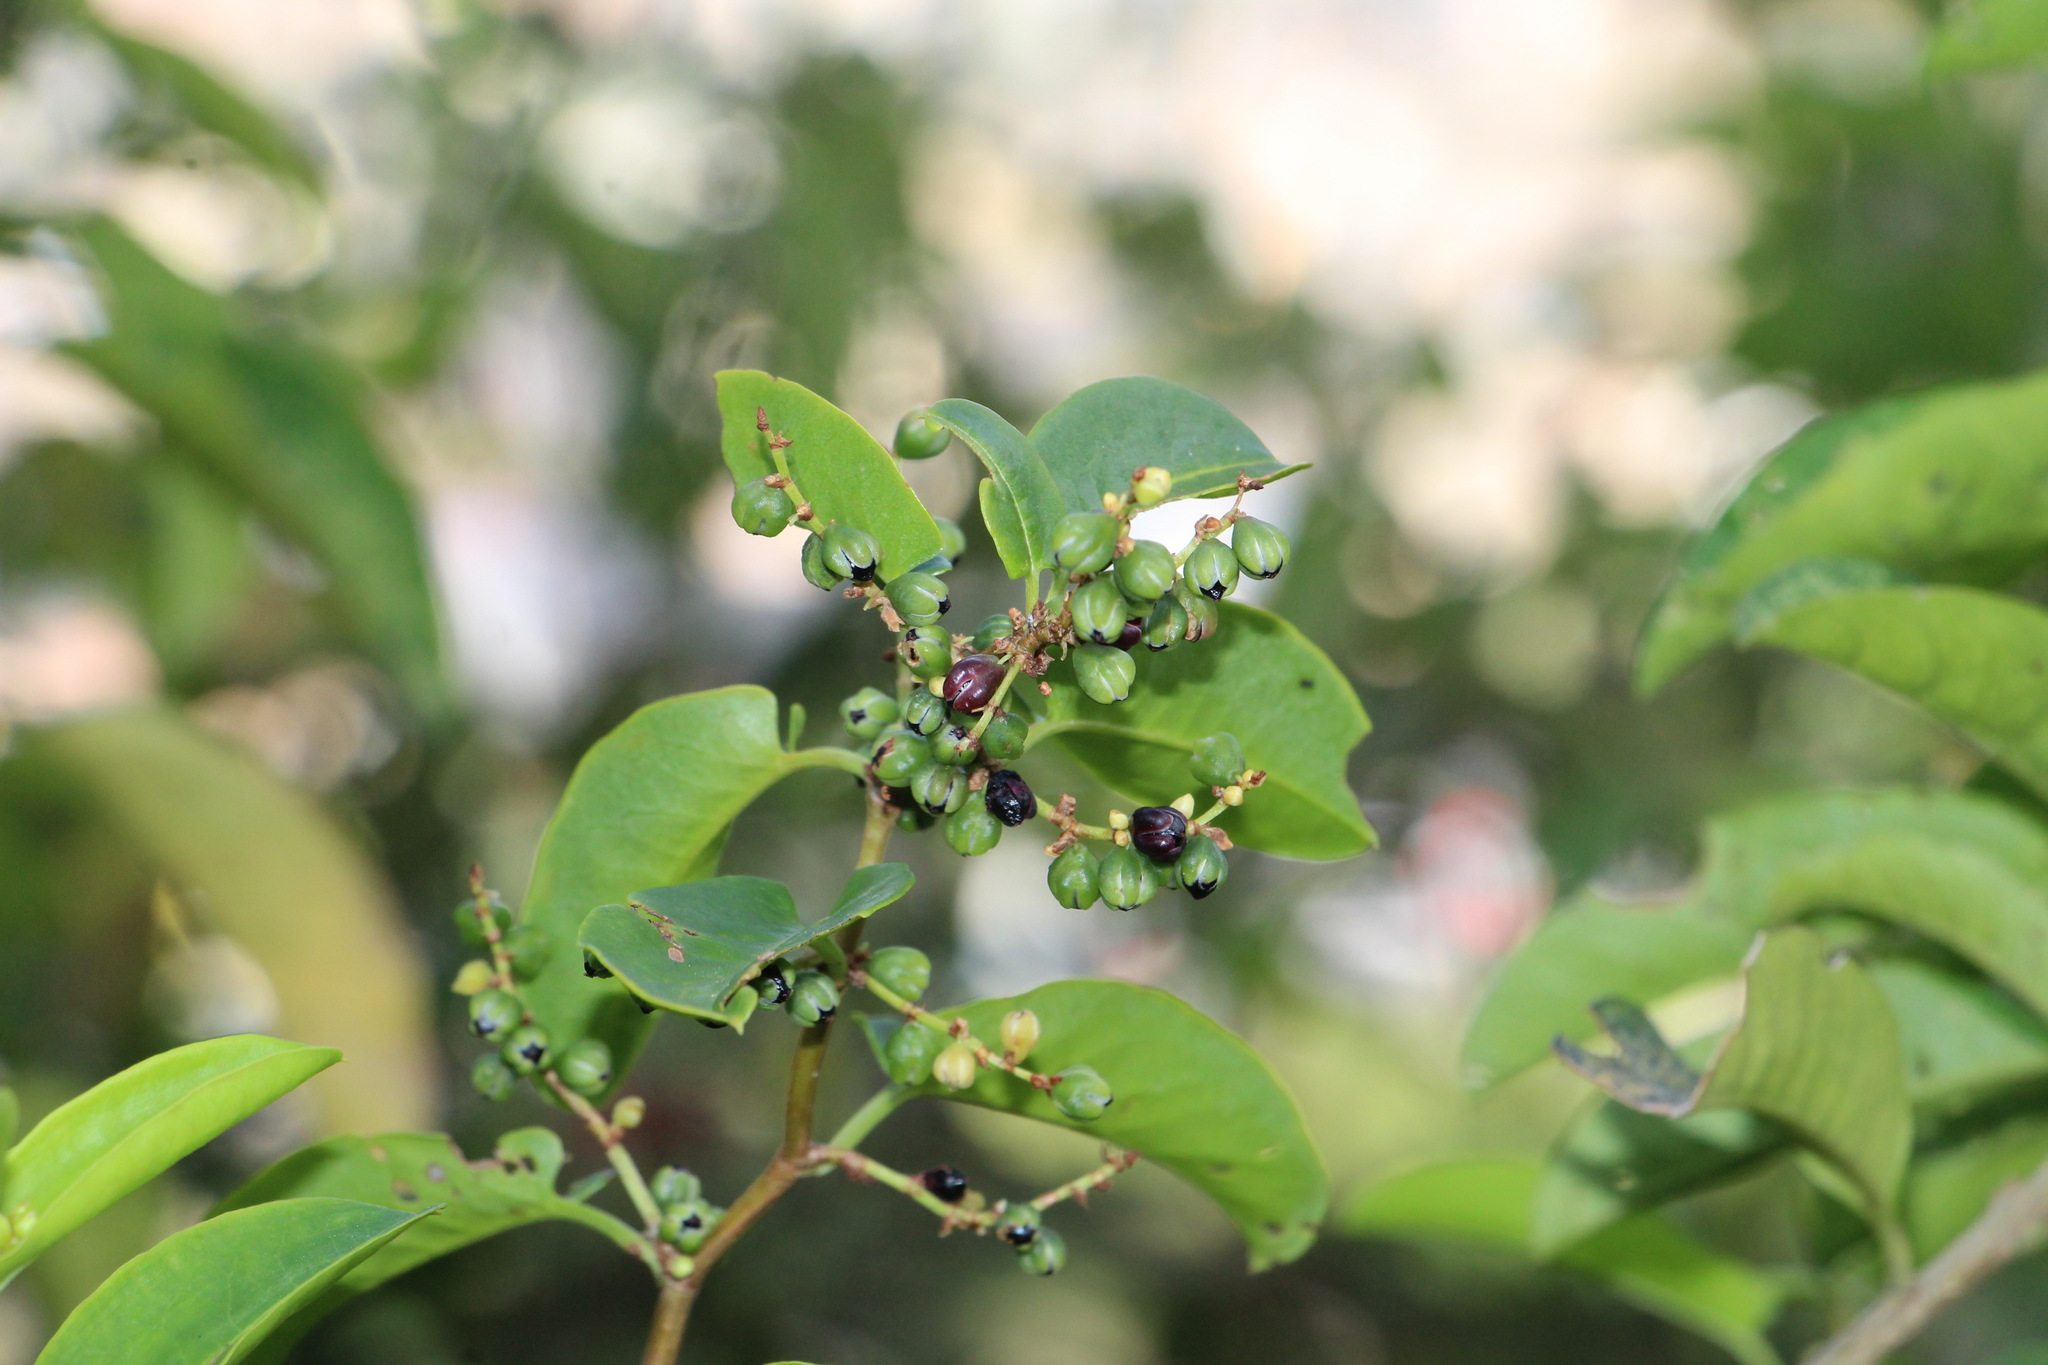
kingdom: Plantae
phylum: Tracheophyta
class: Magnoliopsida
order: Caryophyllales
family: Polygonaceae
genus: Muehlenbeckia
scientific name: Muehlenbeckia tamnifolia
